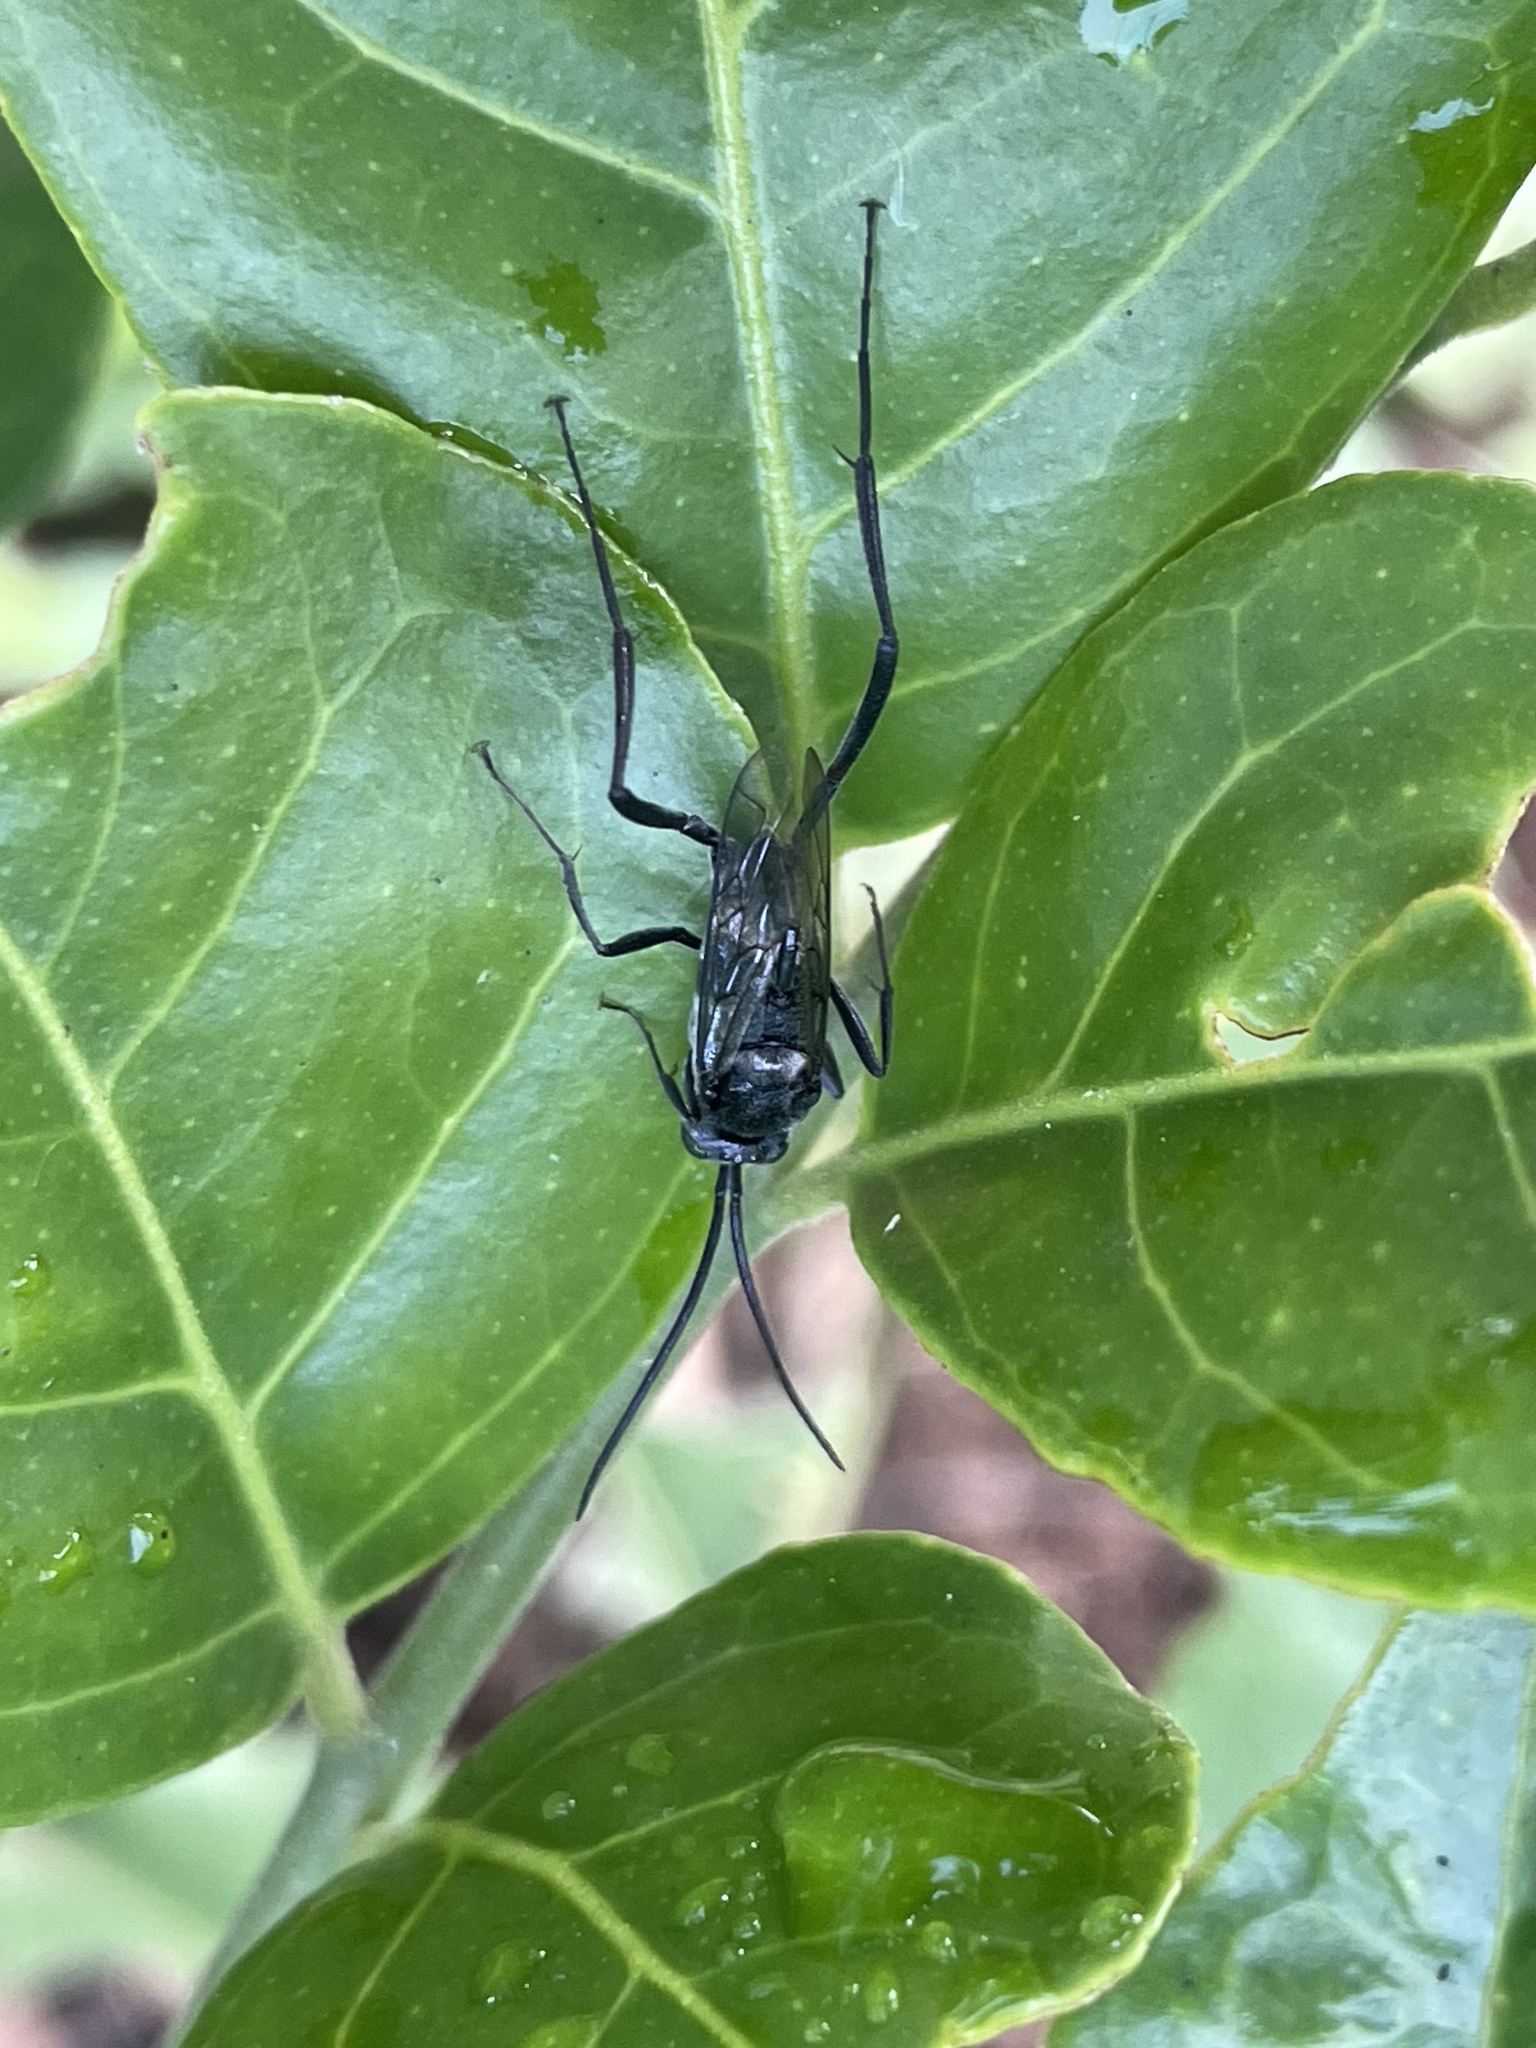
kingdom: Animalia
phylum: Arthropoda
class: Insecta
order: Hymenoptera
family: Evaniidae
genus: Evania
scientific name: Evania appendigaster
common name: Ensign wasp
